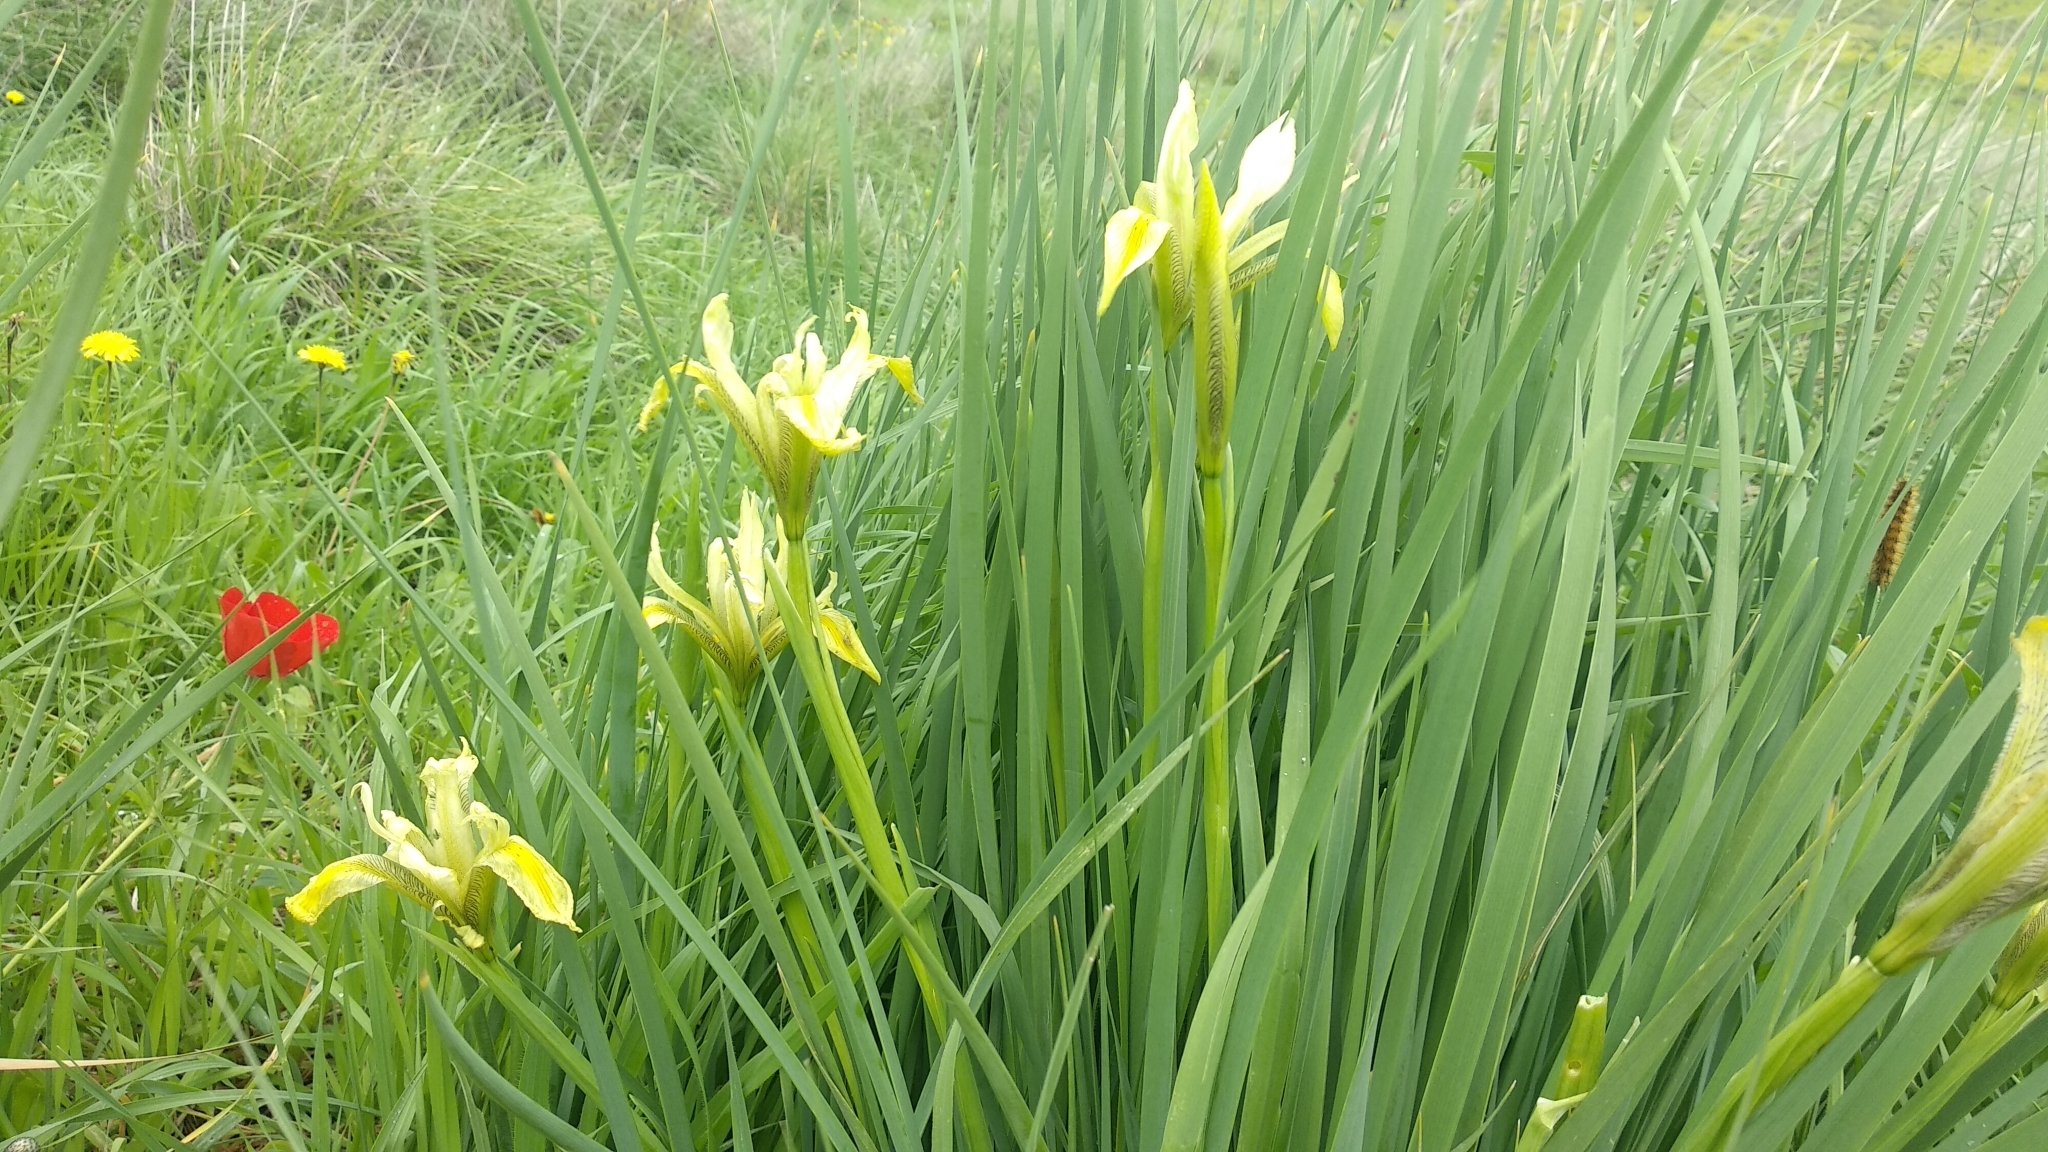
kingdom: Plantae
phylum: Tracheophyta
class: Liliopsida
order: Asparagales
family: Iridaceae
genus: Iris
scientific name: Iris grant-duffii
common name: Grant duff's iris
